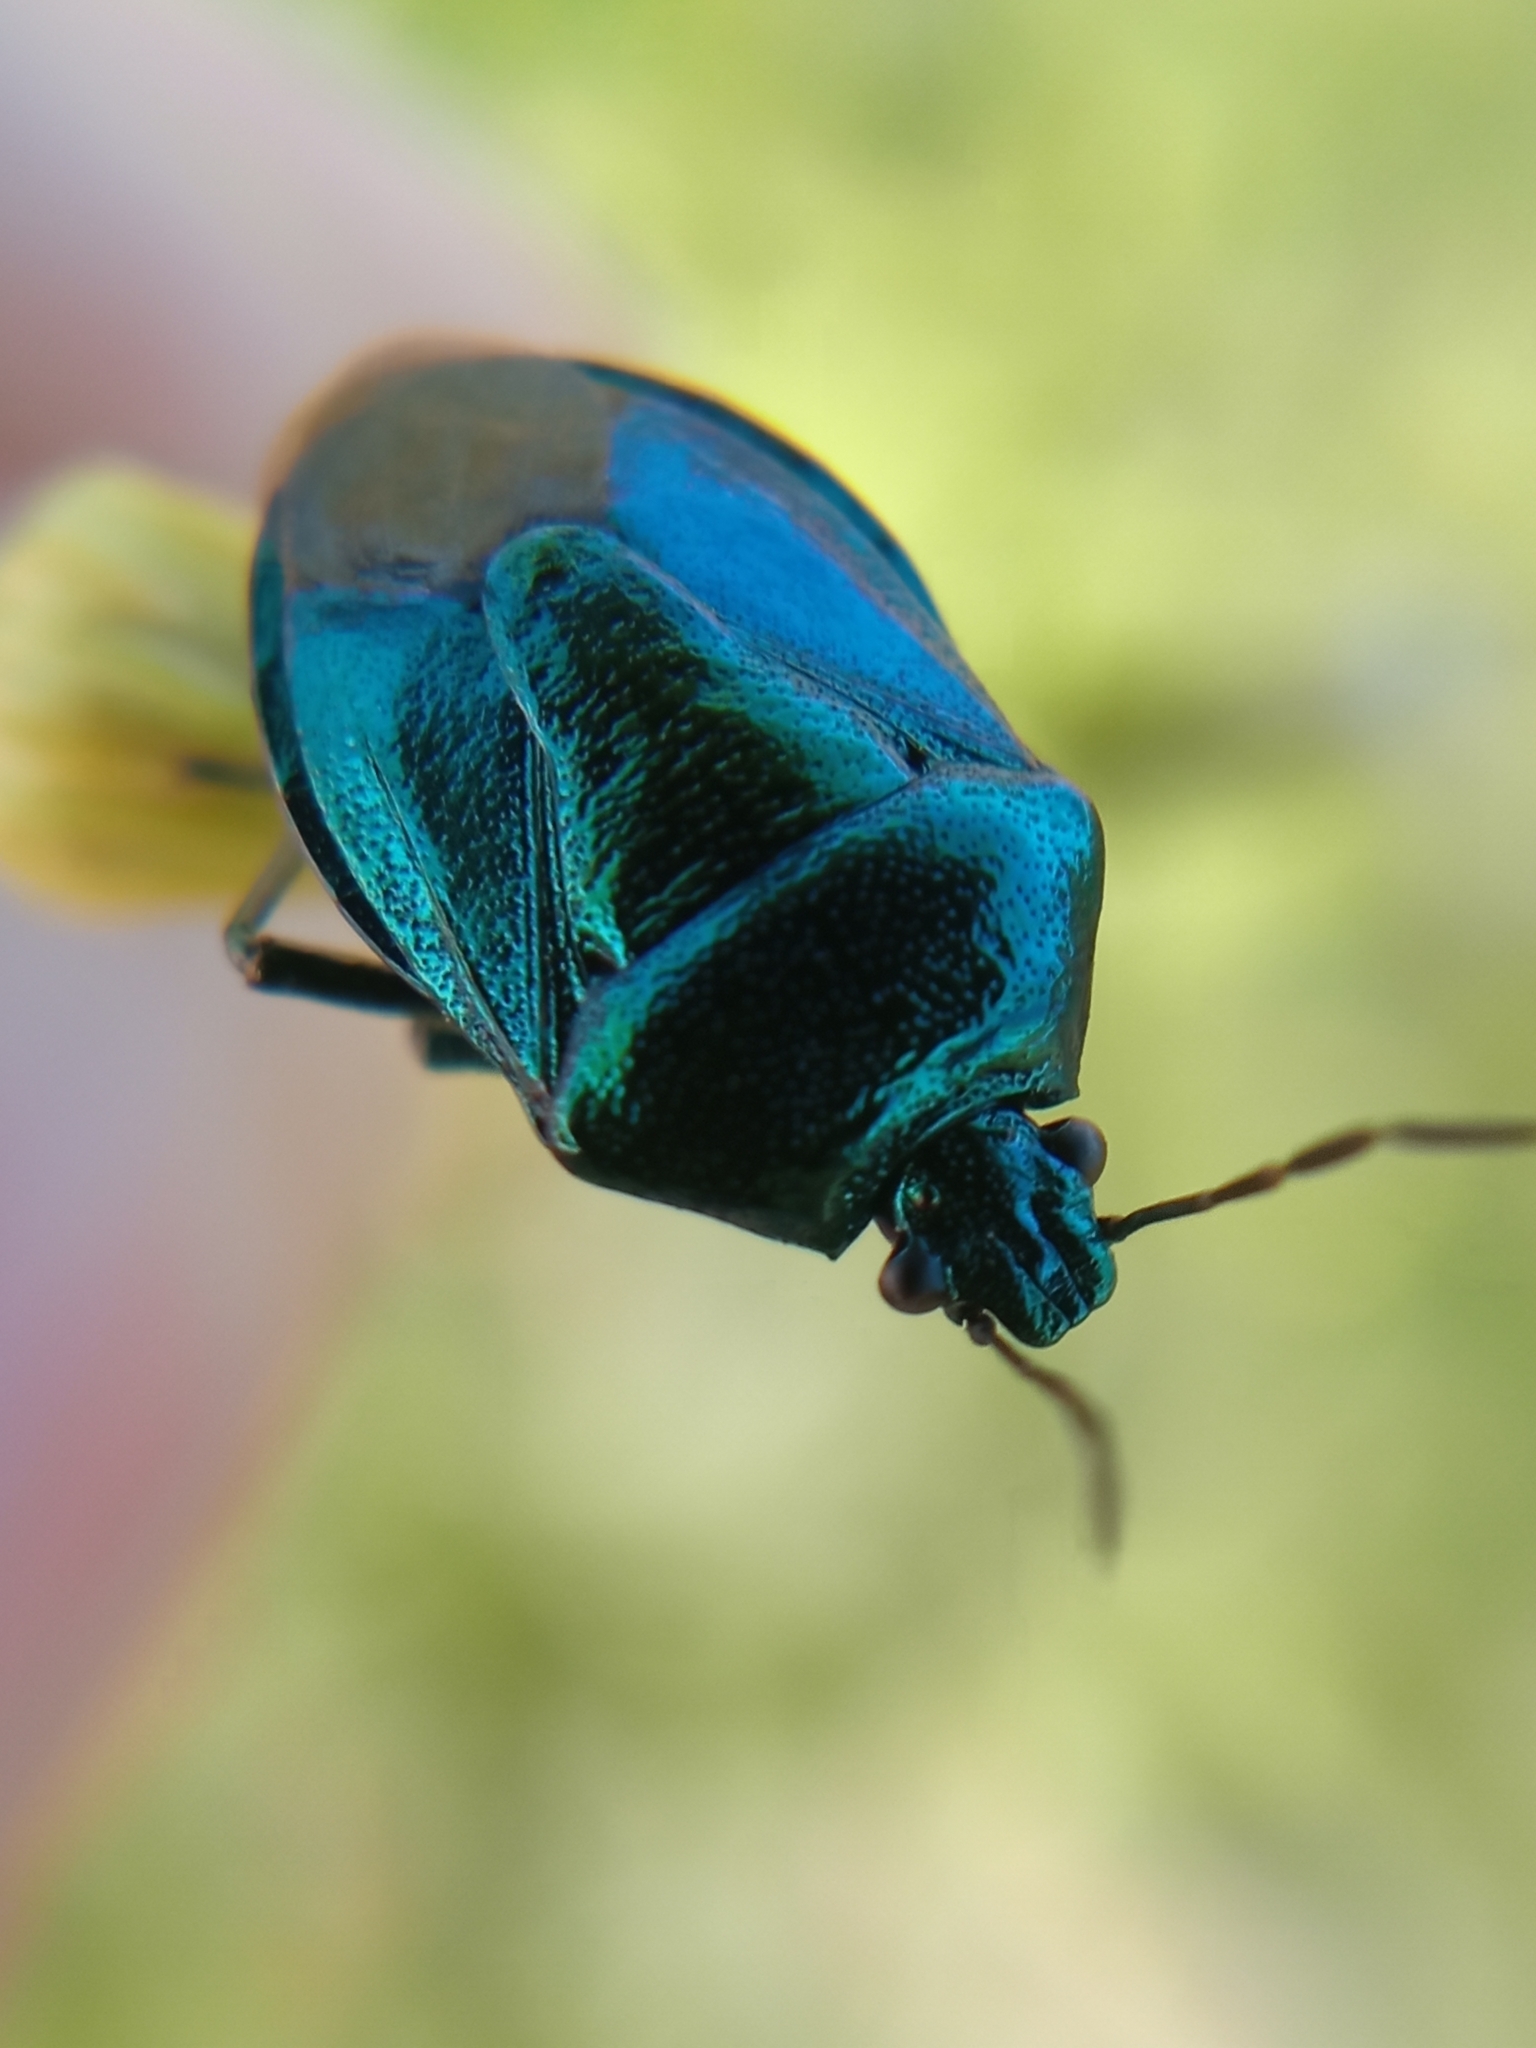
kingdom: Animalia
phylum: Arthropoda
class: Insecta
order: Hemiptera
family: Pentatomidae
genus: Zicrona
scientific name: Zicrona caerulea
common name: Blue shieldbug
